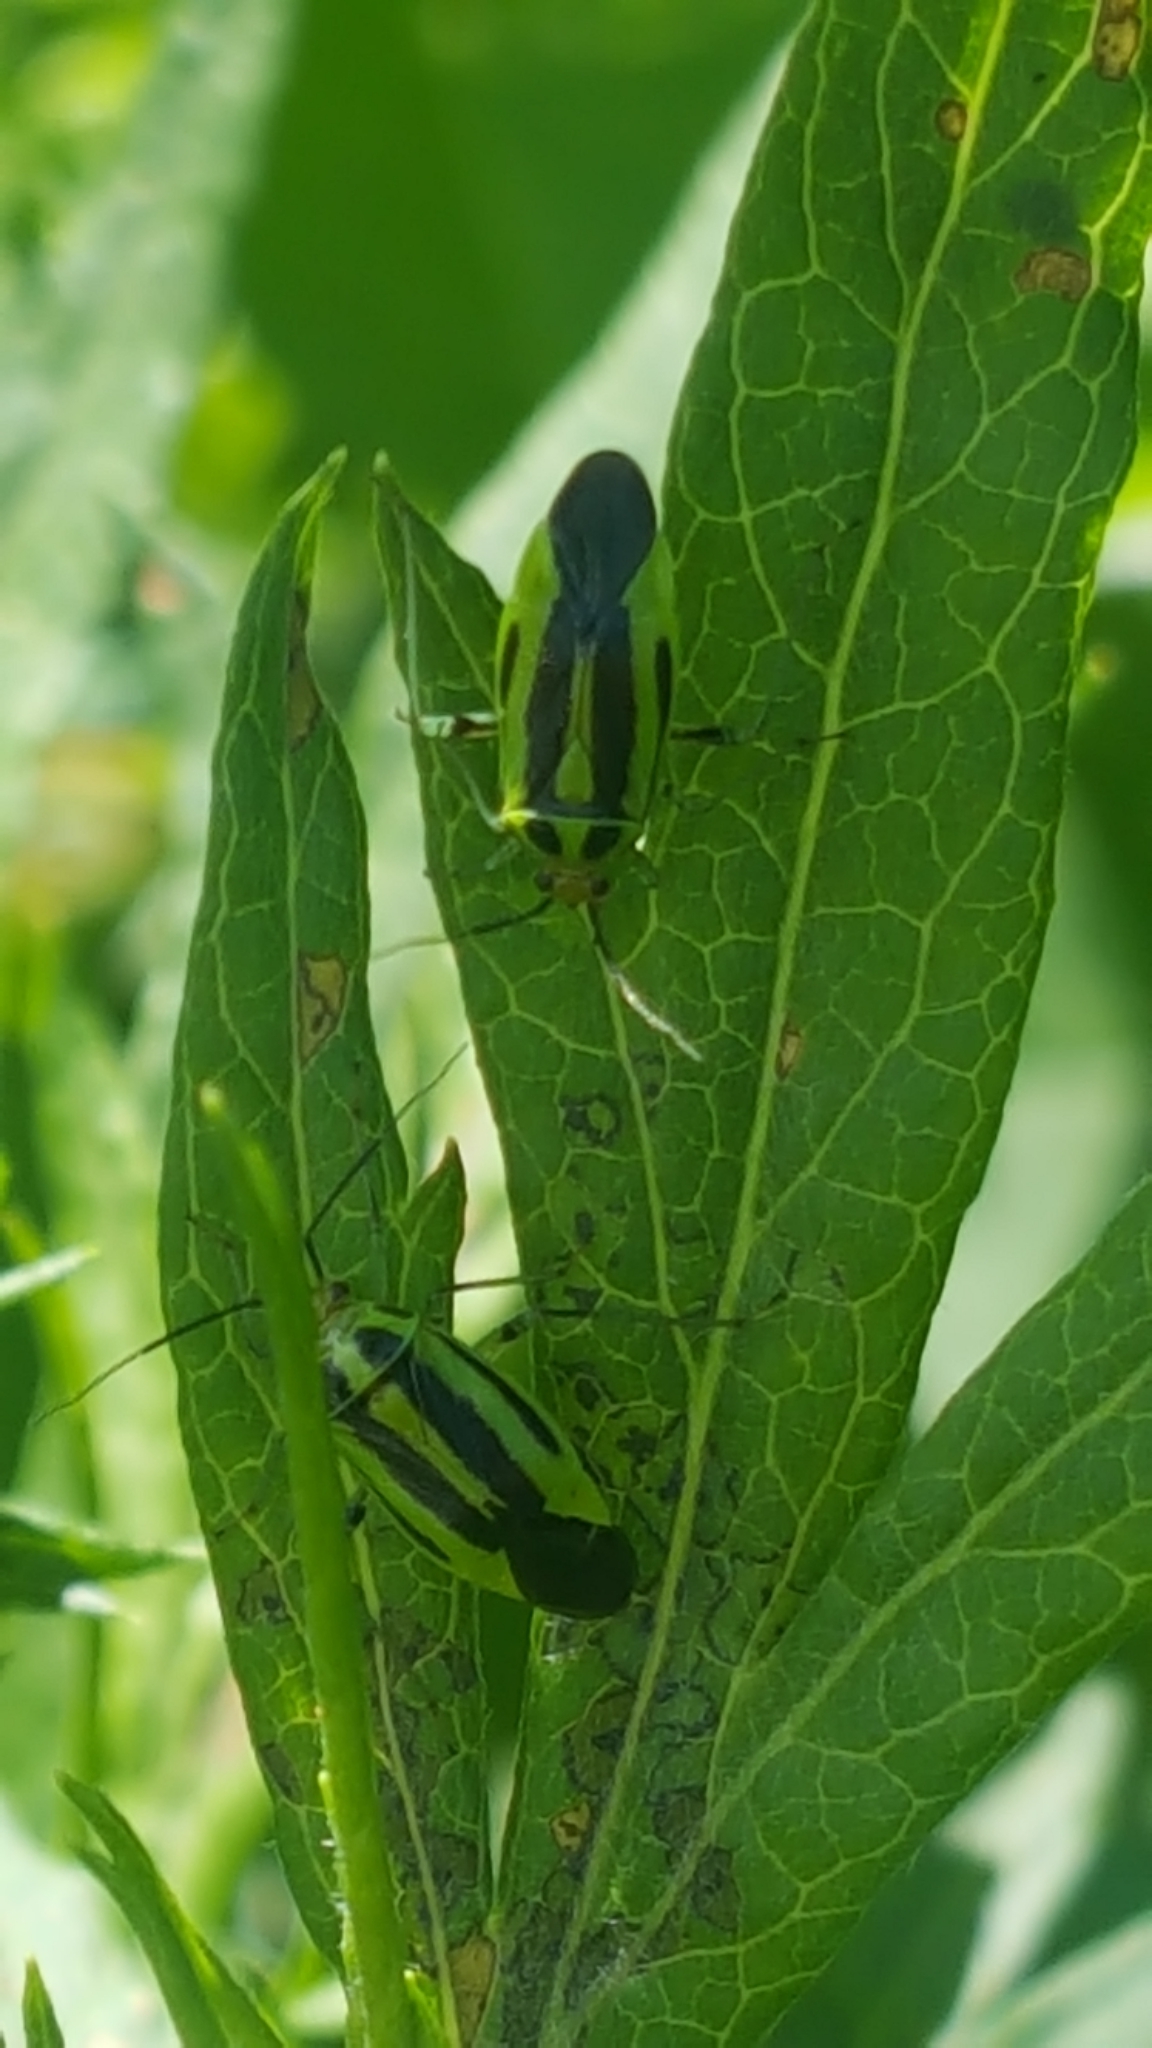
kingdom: Animalia
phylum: Arthropoda
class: Insecta
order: Hemiptera
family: Miridae
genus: Poecilocapsus
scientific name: Poecilocapsus lineatus
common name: Four-lined plant bug
